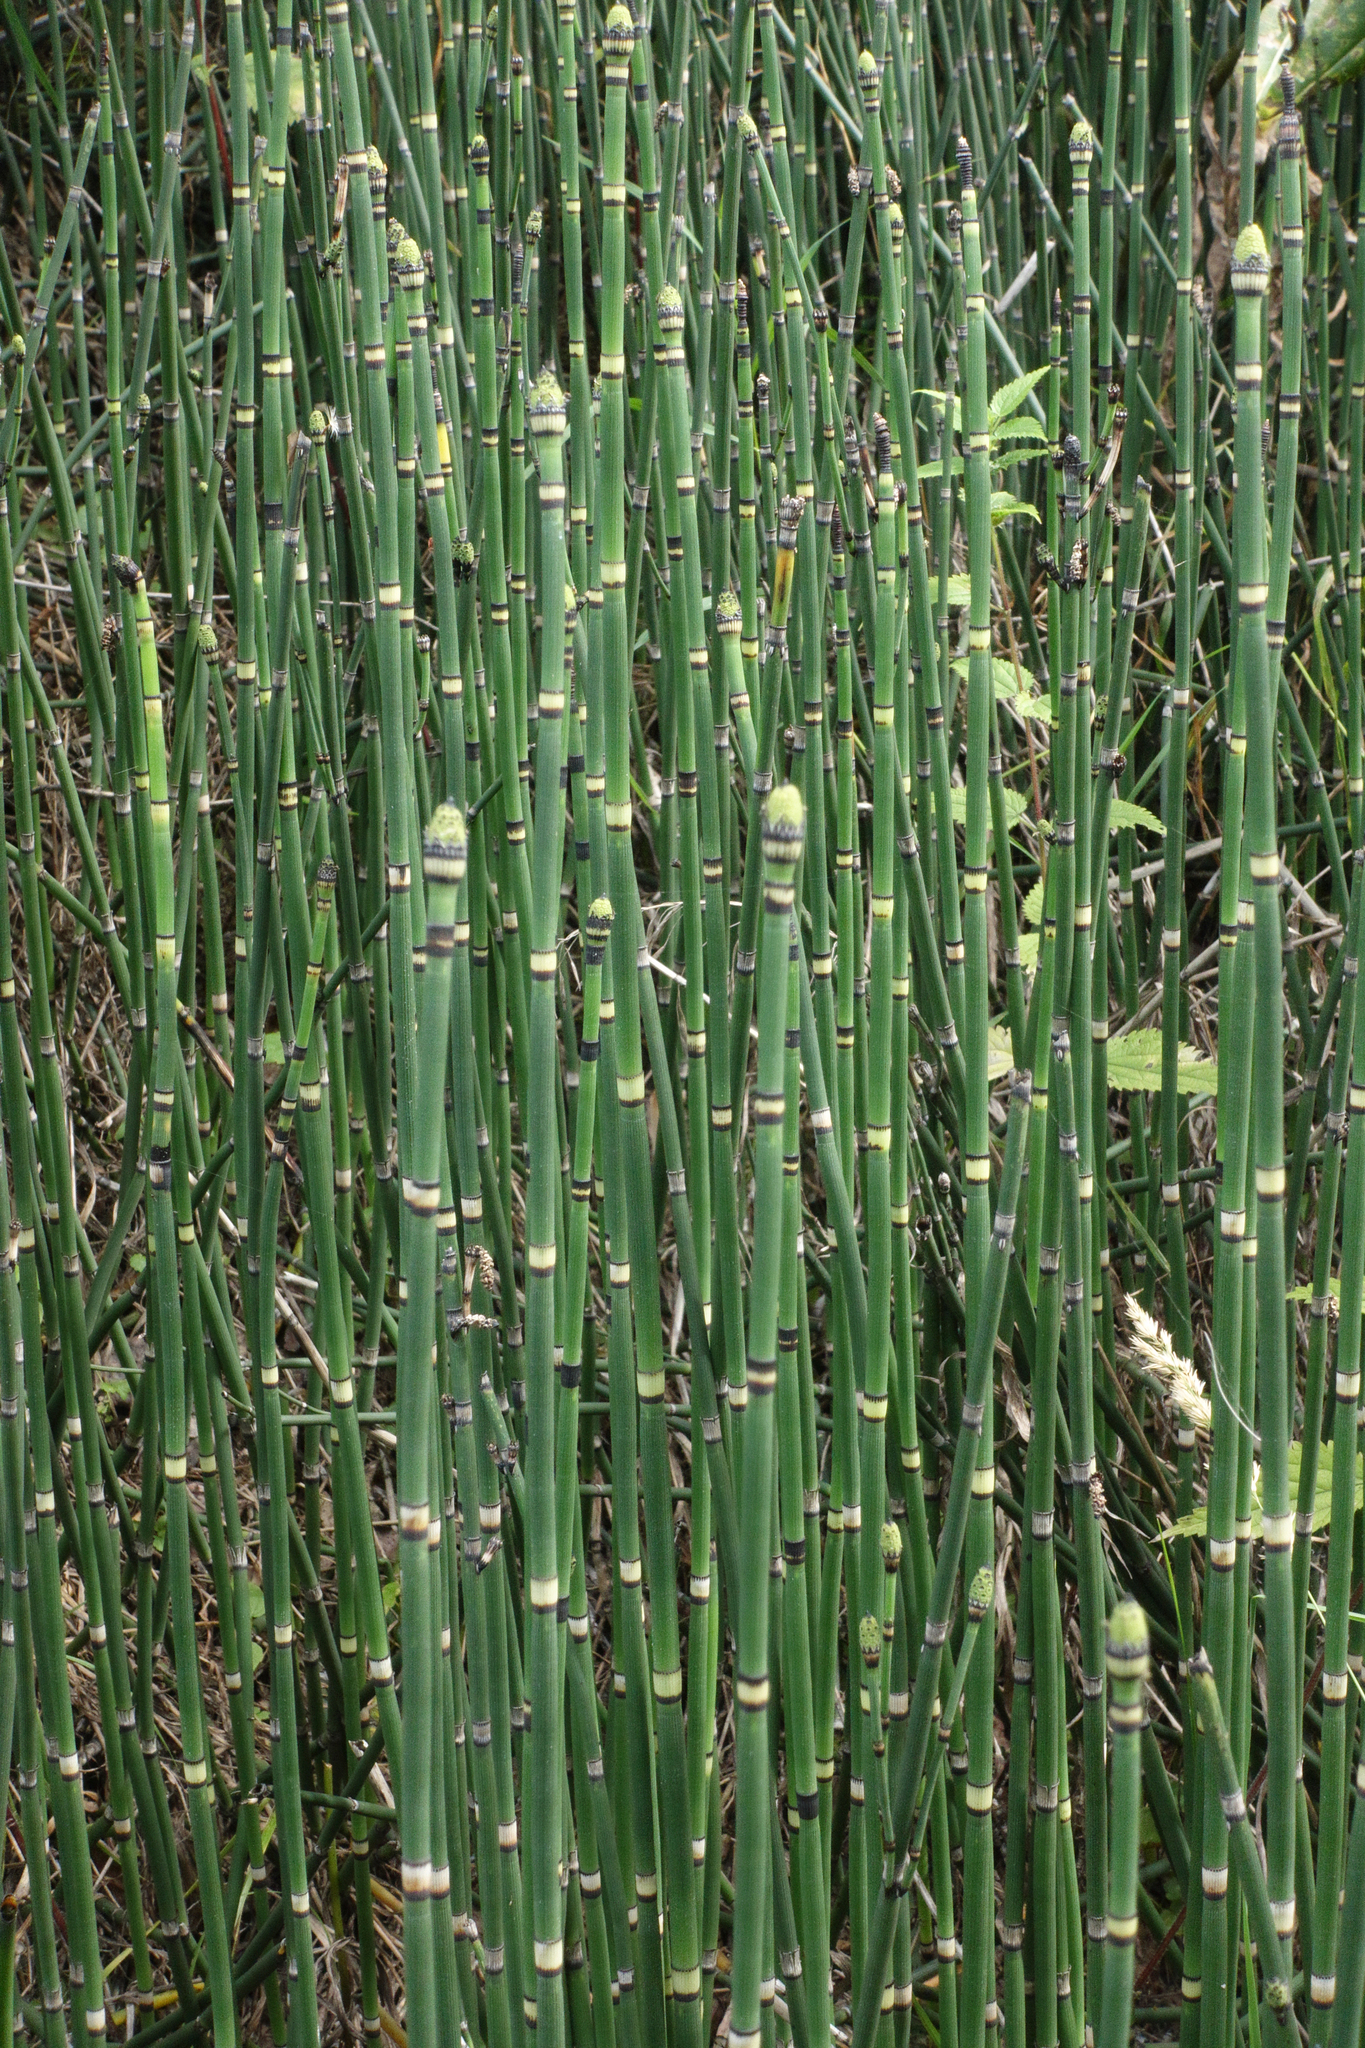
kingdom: Plantae
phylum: Tracheophyta
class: Polypodiopsida
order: Equisetales
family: Equisetaceae
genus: Equisetum
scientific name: Equisetum hyemale
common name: Rough horsetail
